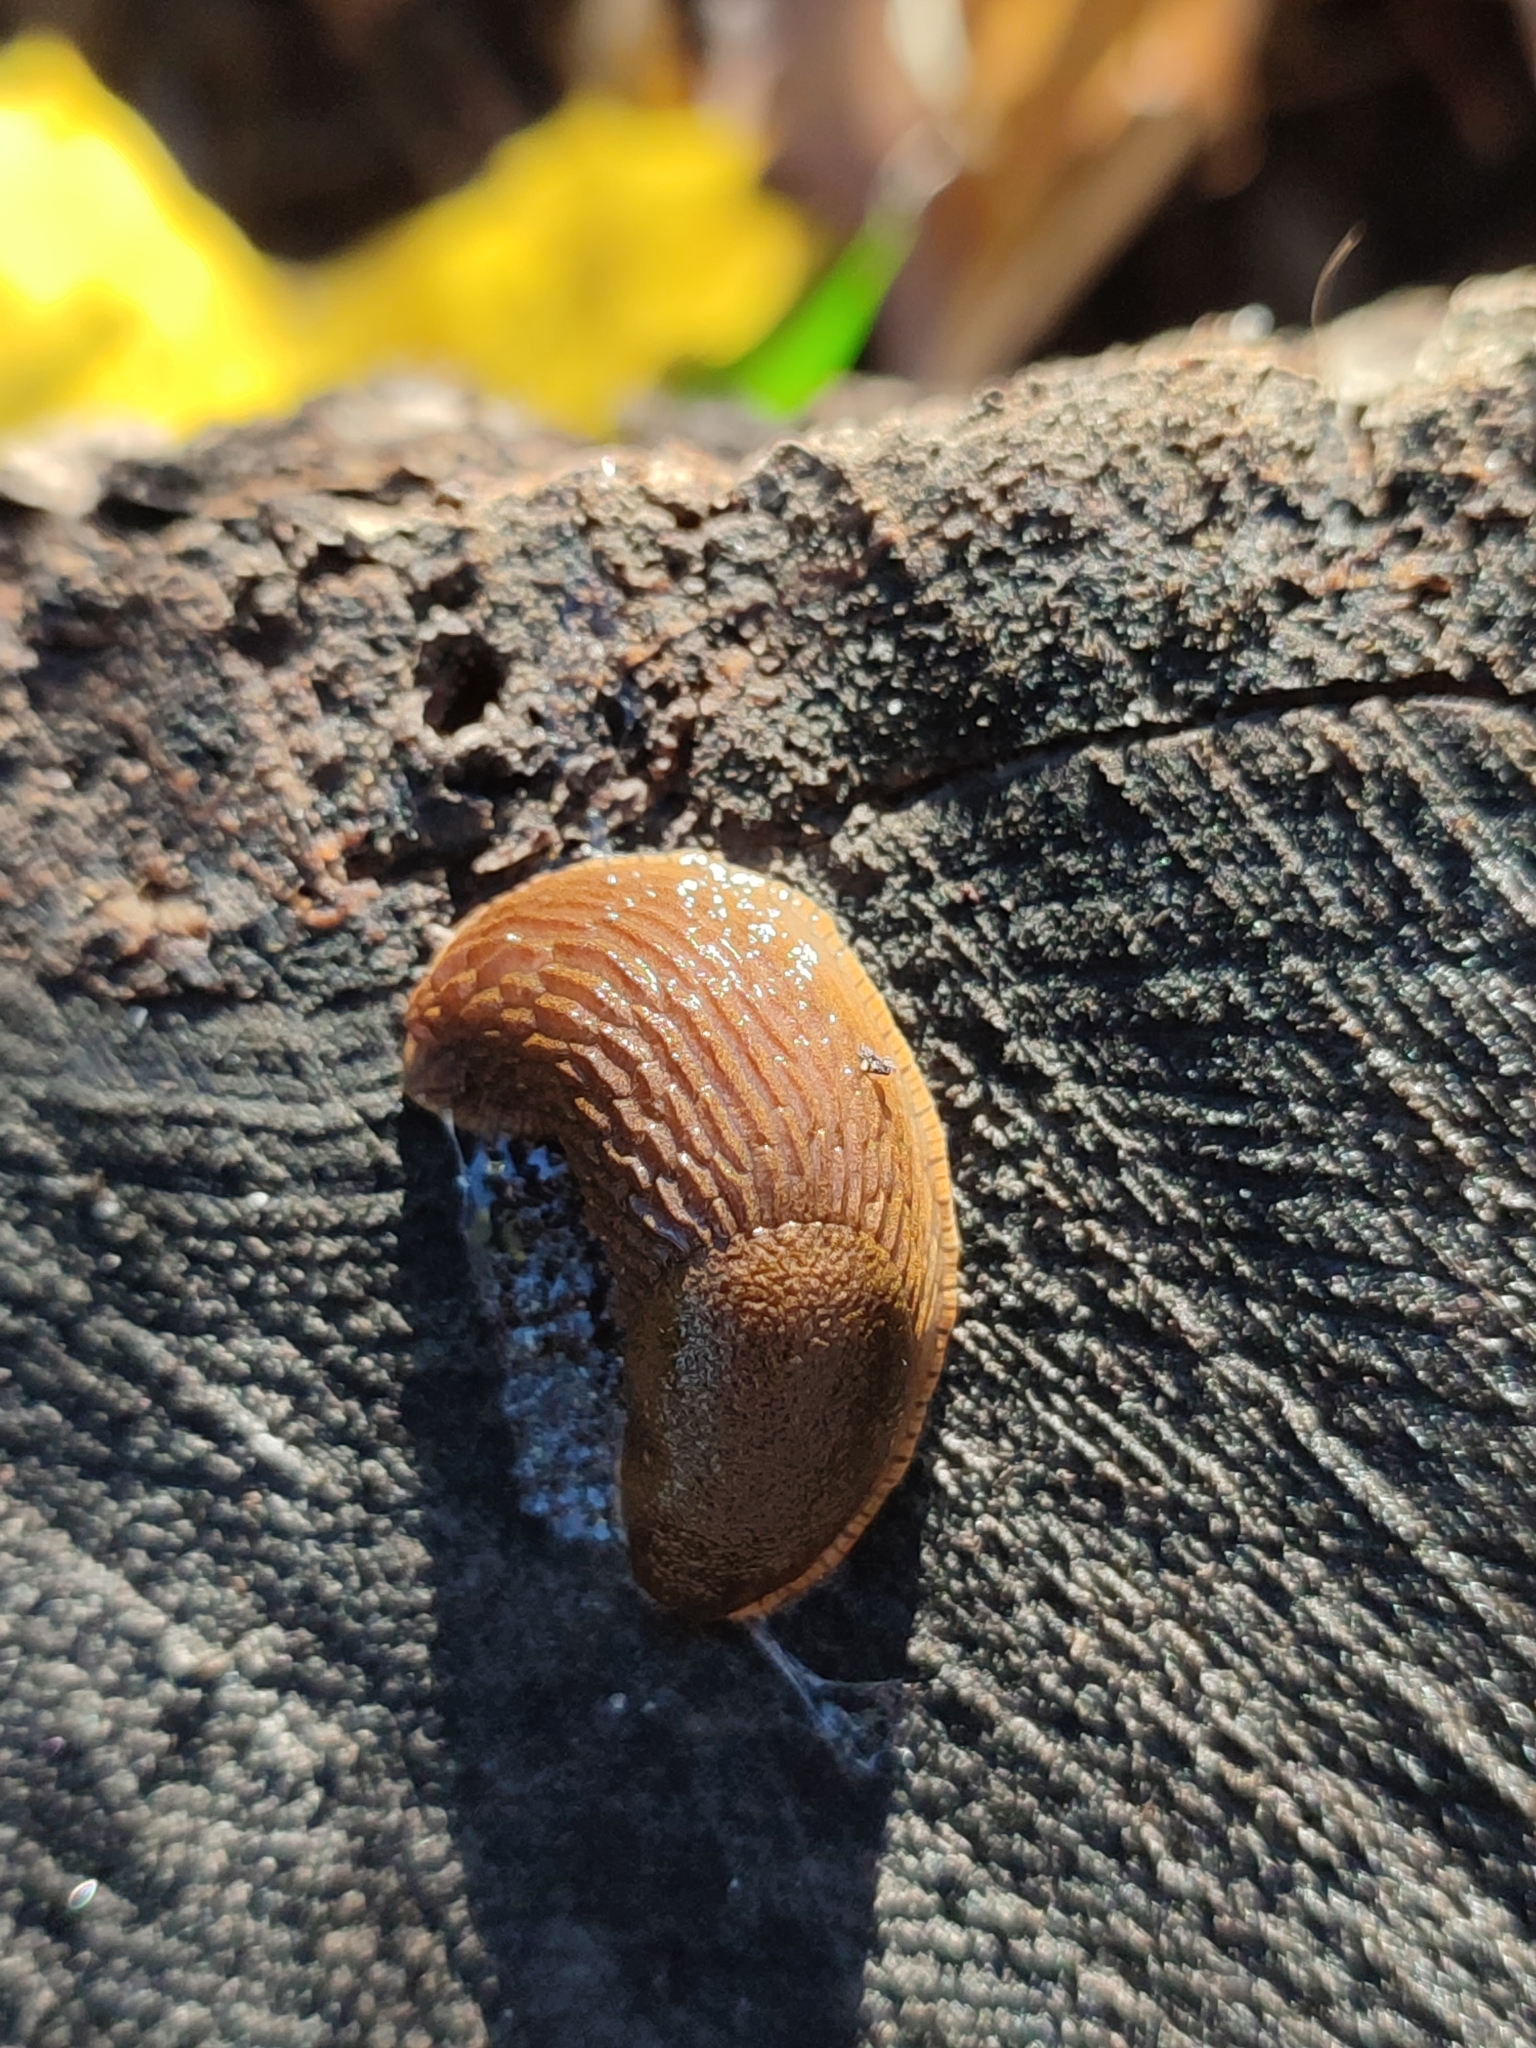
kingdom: Animalia
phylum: Mollusca
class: Gastropoda
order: Stylommatophora
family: Arionidae
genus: Arion
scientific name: Arion vulgaris
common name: Lusitanian slug
